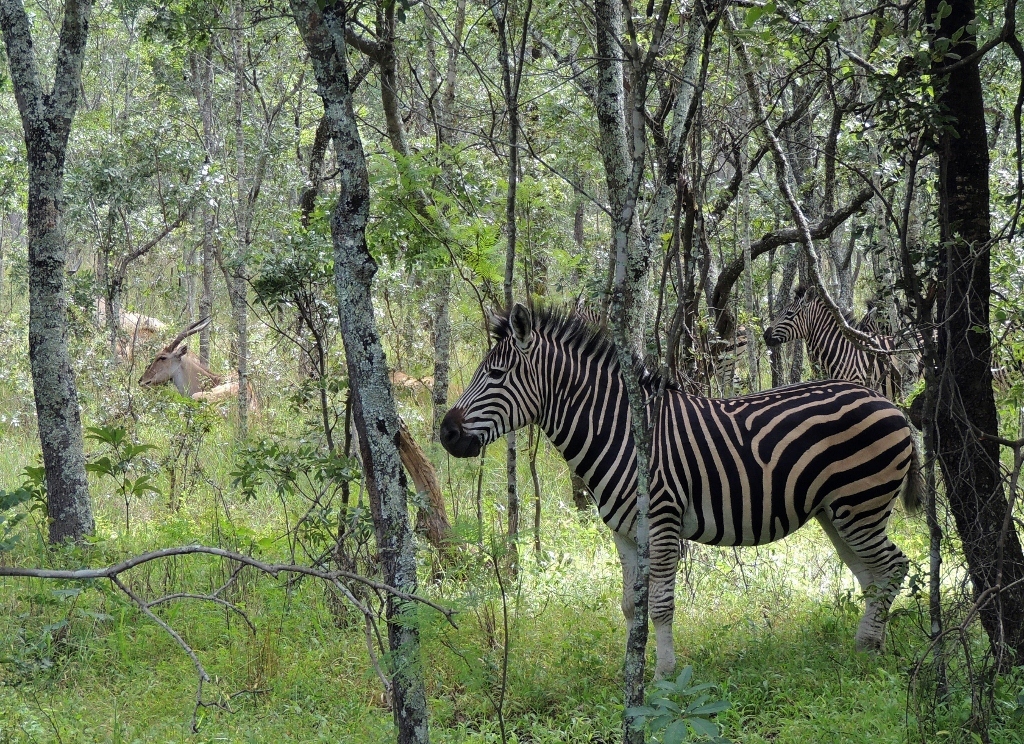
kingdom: Animalia
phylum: Chordata
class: Mammalia
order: Perissodactyla
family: Equidae
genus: Equus
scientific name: Equus quagga
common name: Plains zebra
